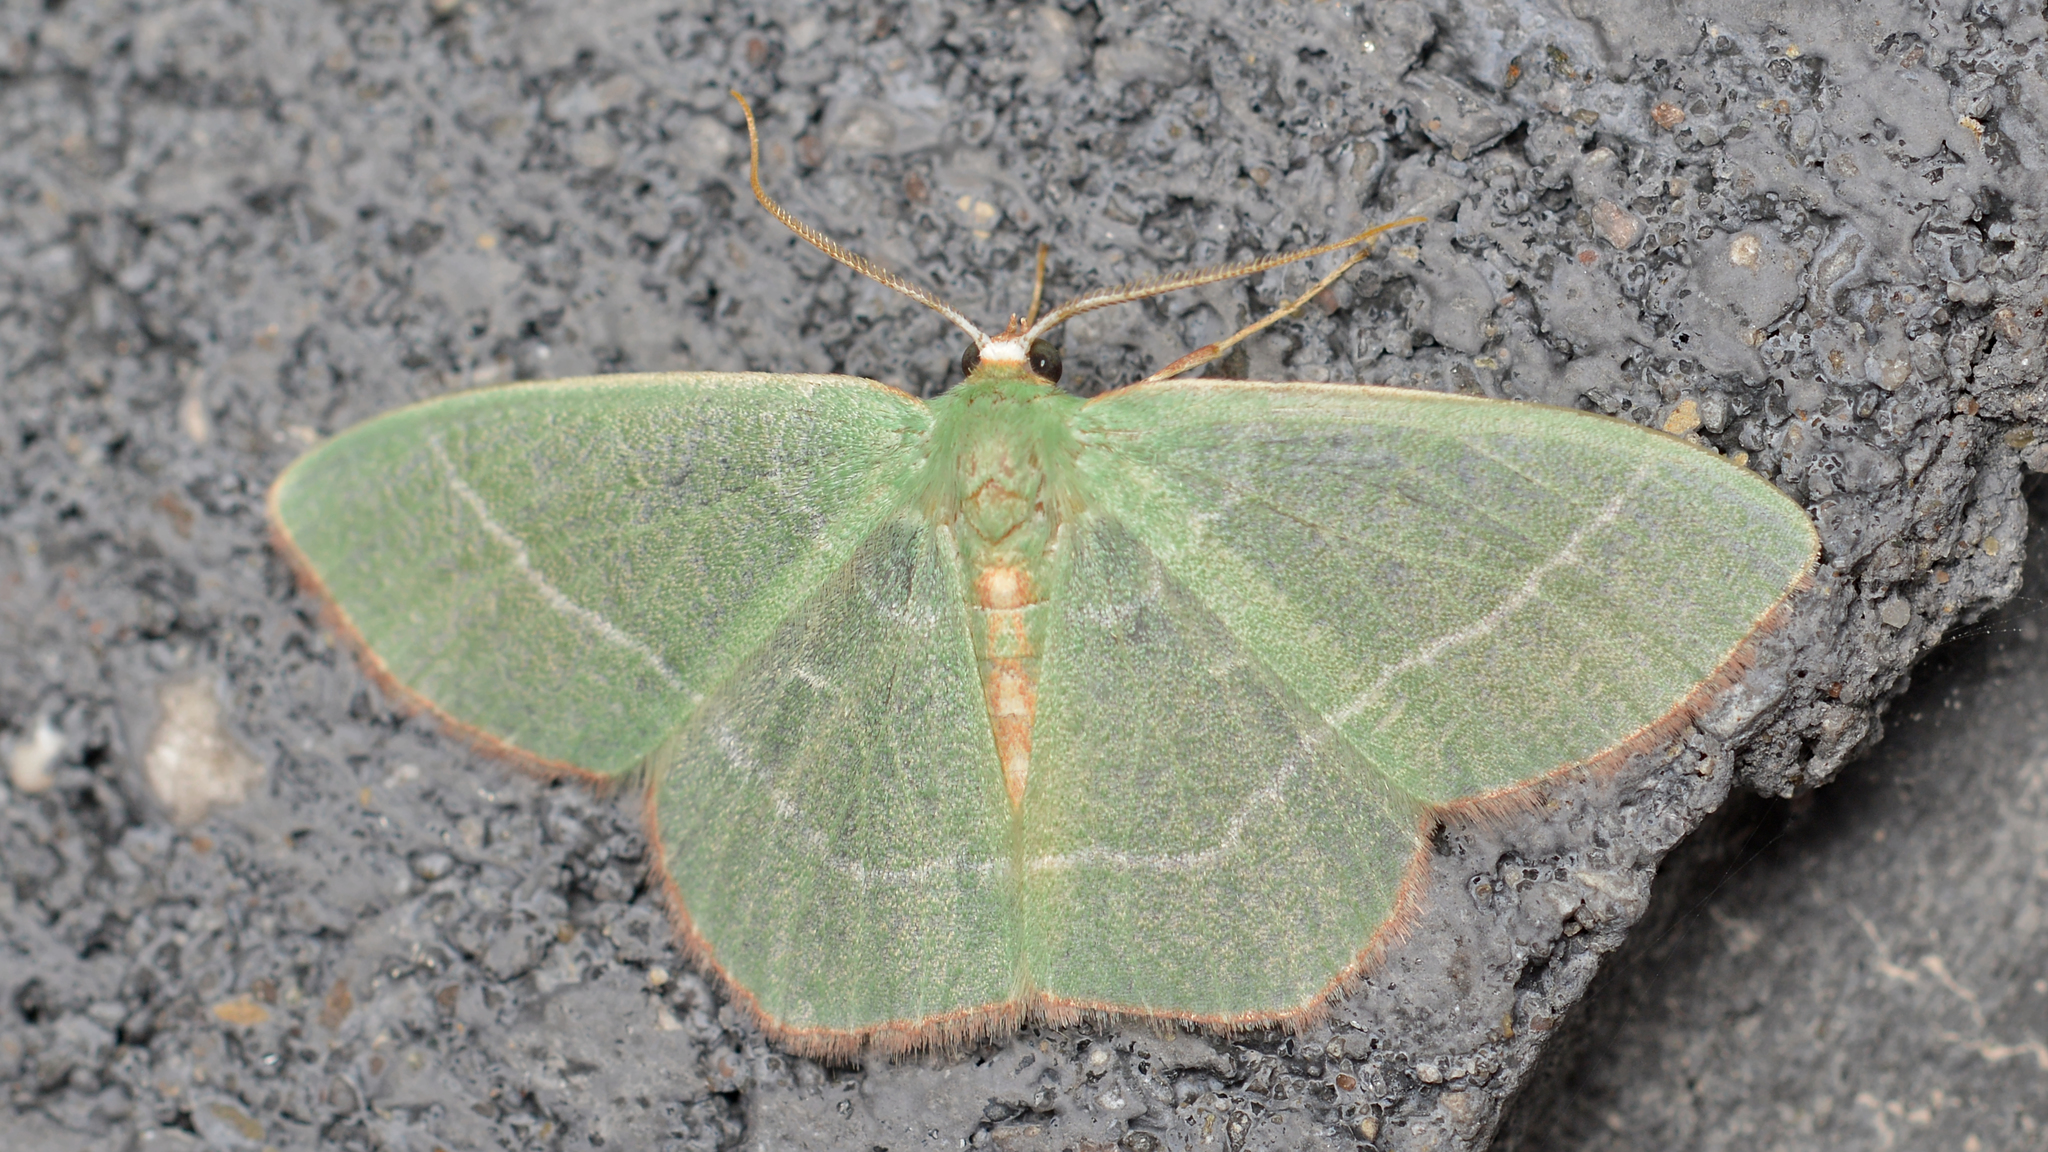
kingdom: Animalia
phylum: Arthropoda
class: Insecta
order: Lepidoptera
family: Geometridae
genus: Nemoria
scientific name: Nemoria bistriaria
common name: Red-fringed emerald
